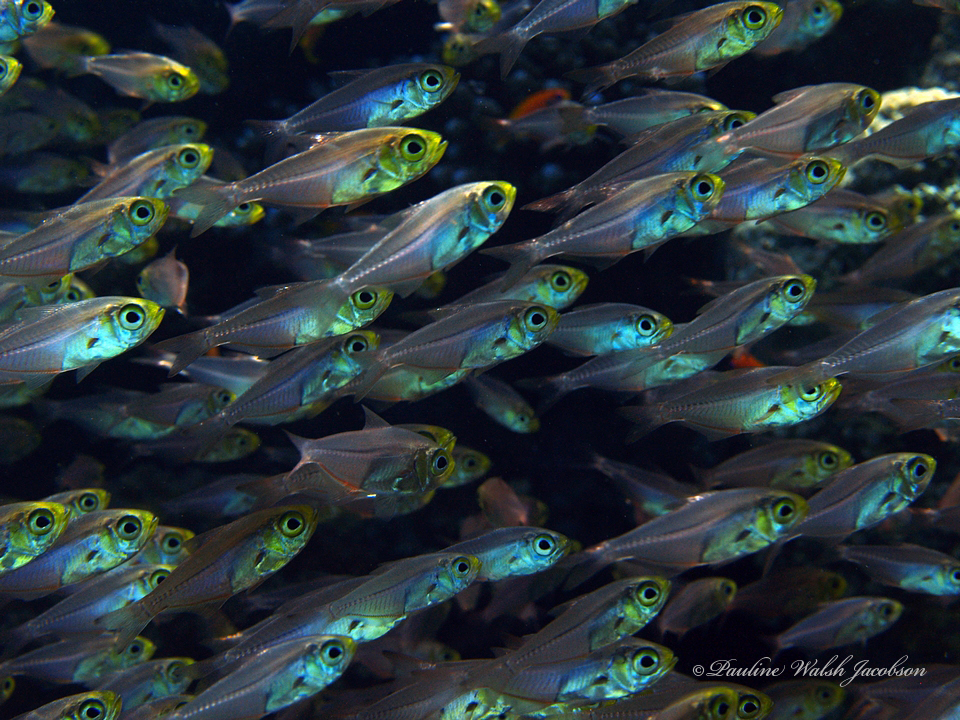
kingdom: Animalia
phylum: Chordata
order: Perciformes
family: Pempheridae
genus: Parapriacanthus
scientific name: Parapriacanthus guentheri
